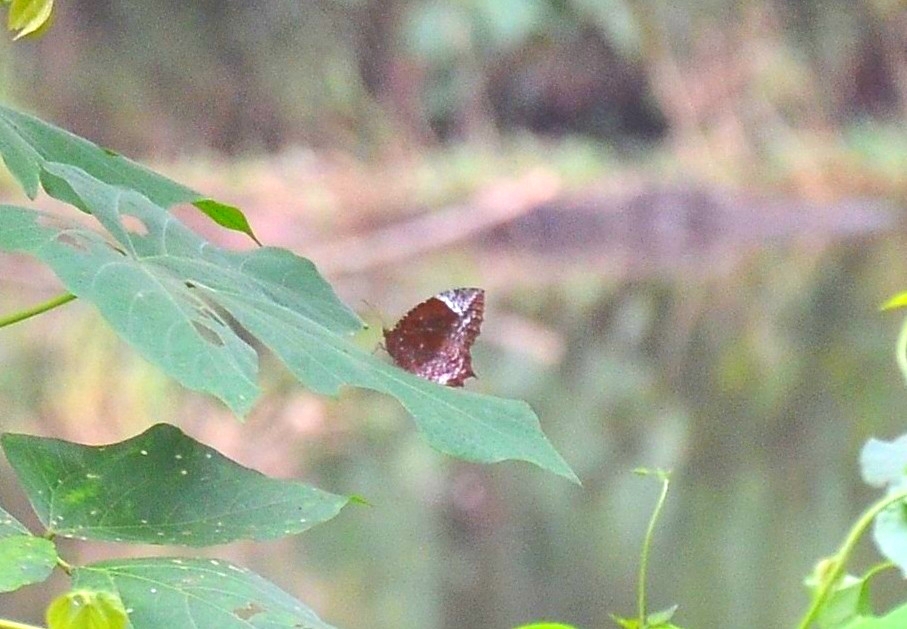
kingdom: Animalia
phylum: Arthropoda
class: Insecta
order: Lepidoptera
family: Nymphalidae
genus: Elymnias
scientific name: Elymnias caudata
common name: Tailed palmfly
